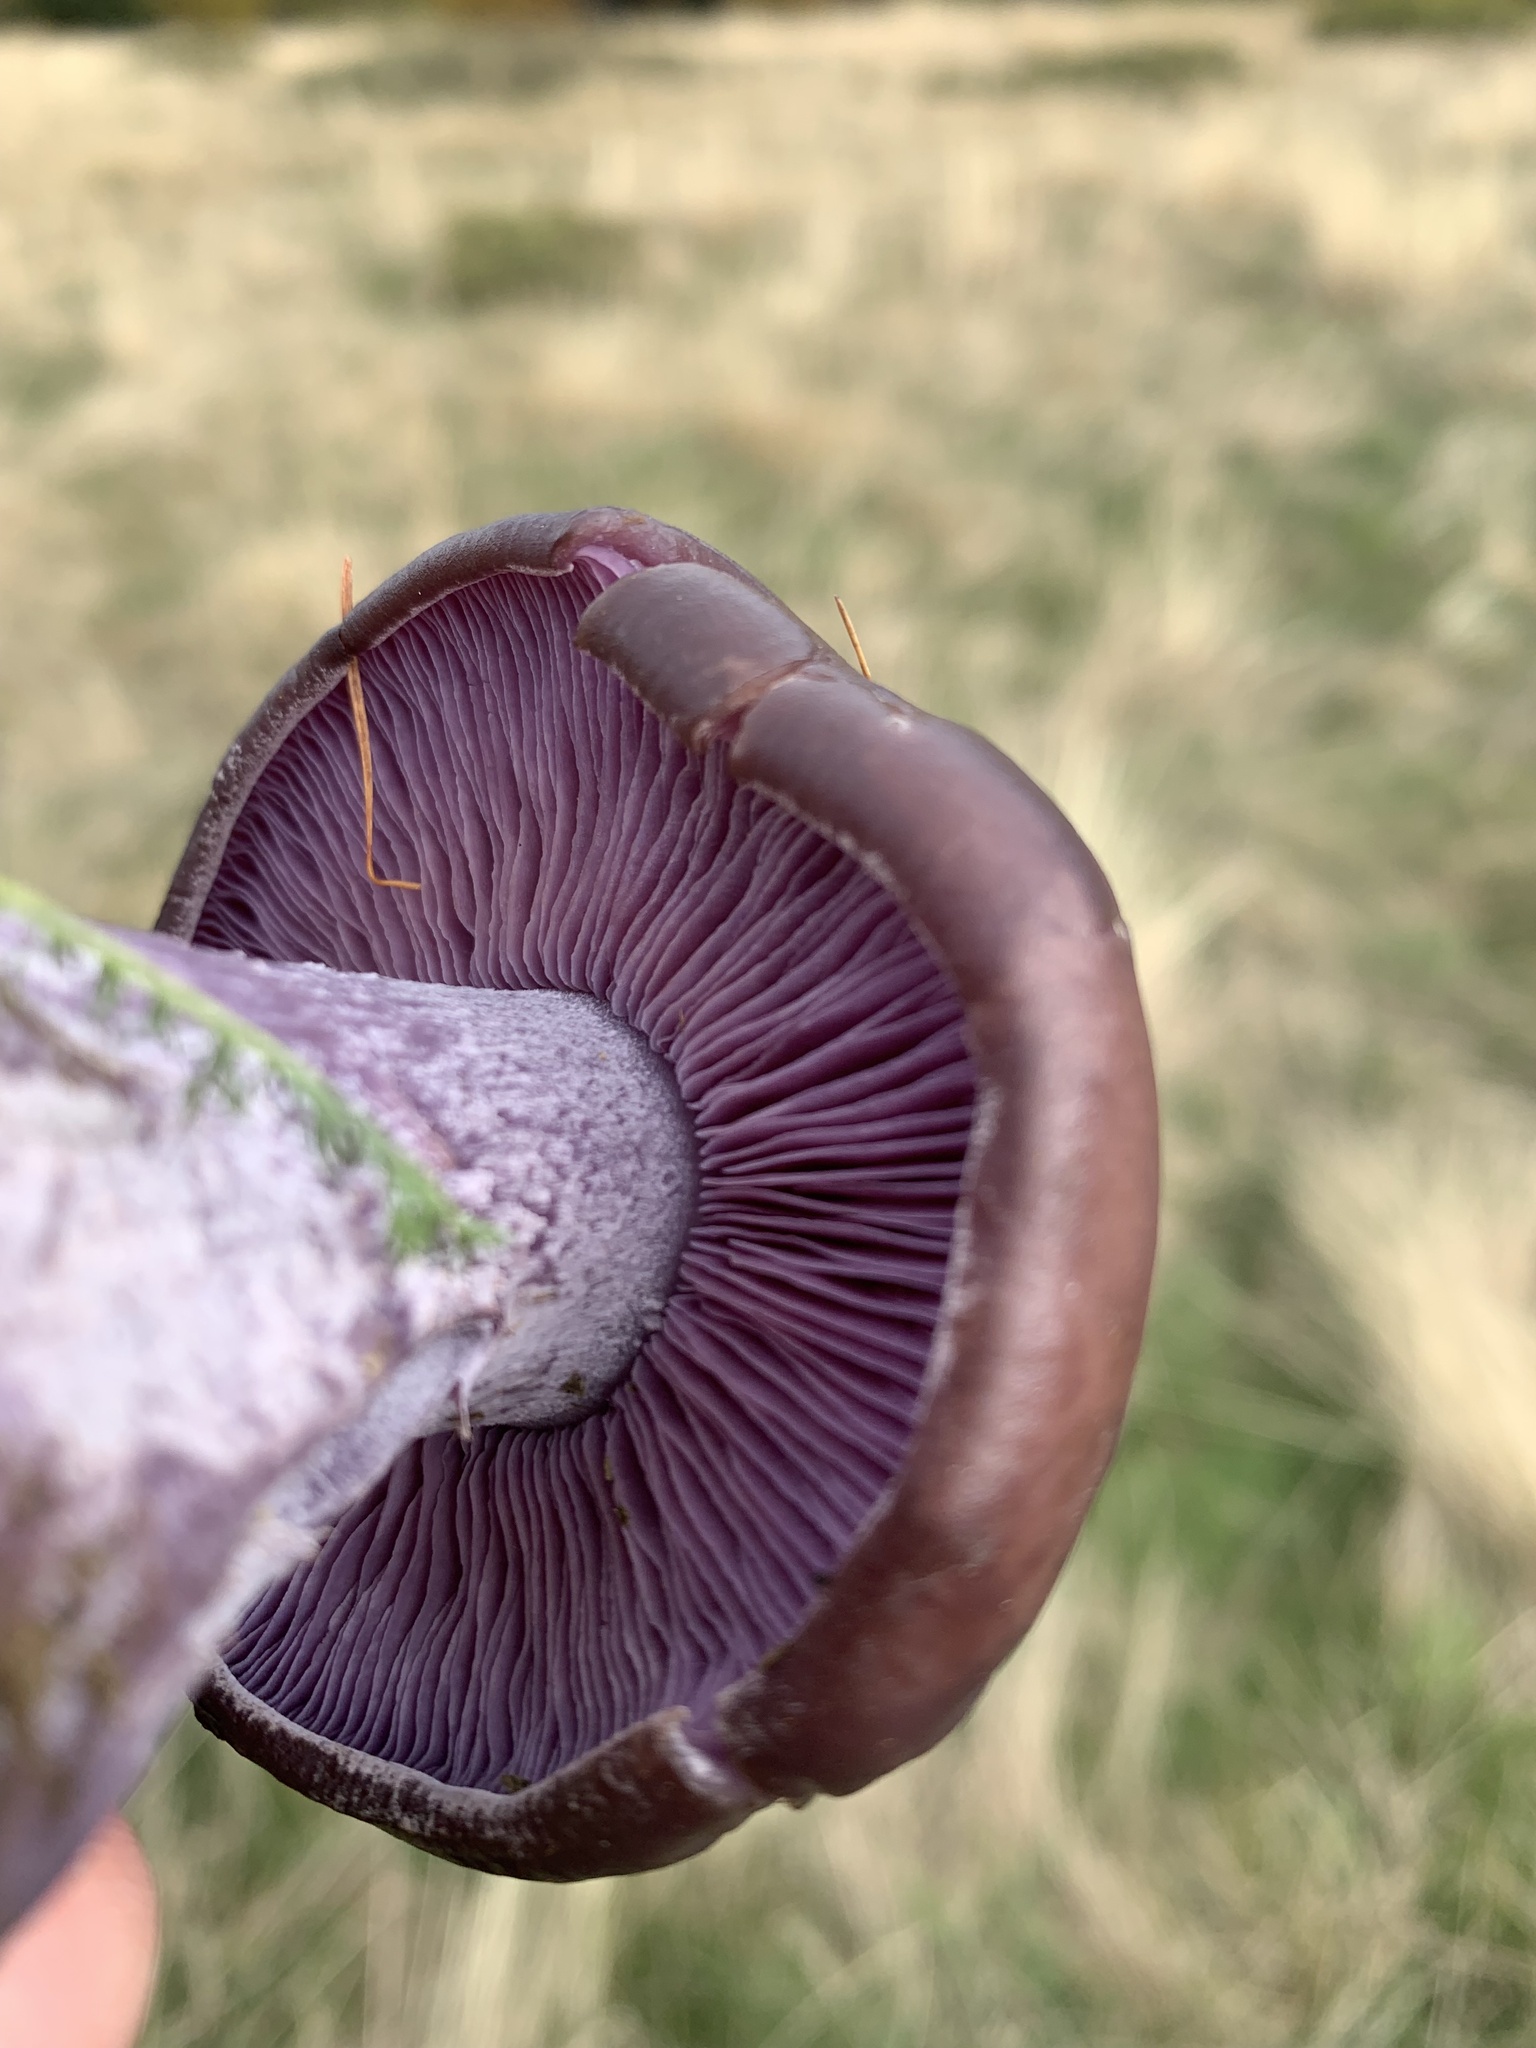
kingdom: Fungi
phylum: Basidiomycota
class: Agaricomycetes
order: Agaricales
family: Tricholomataceae
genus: Collybia
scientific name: Collybia
